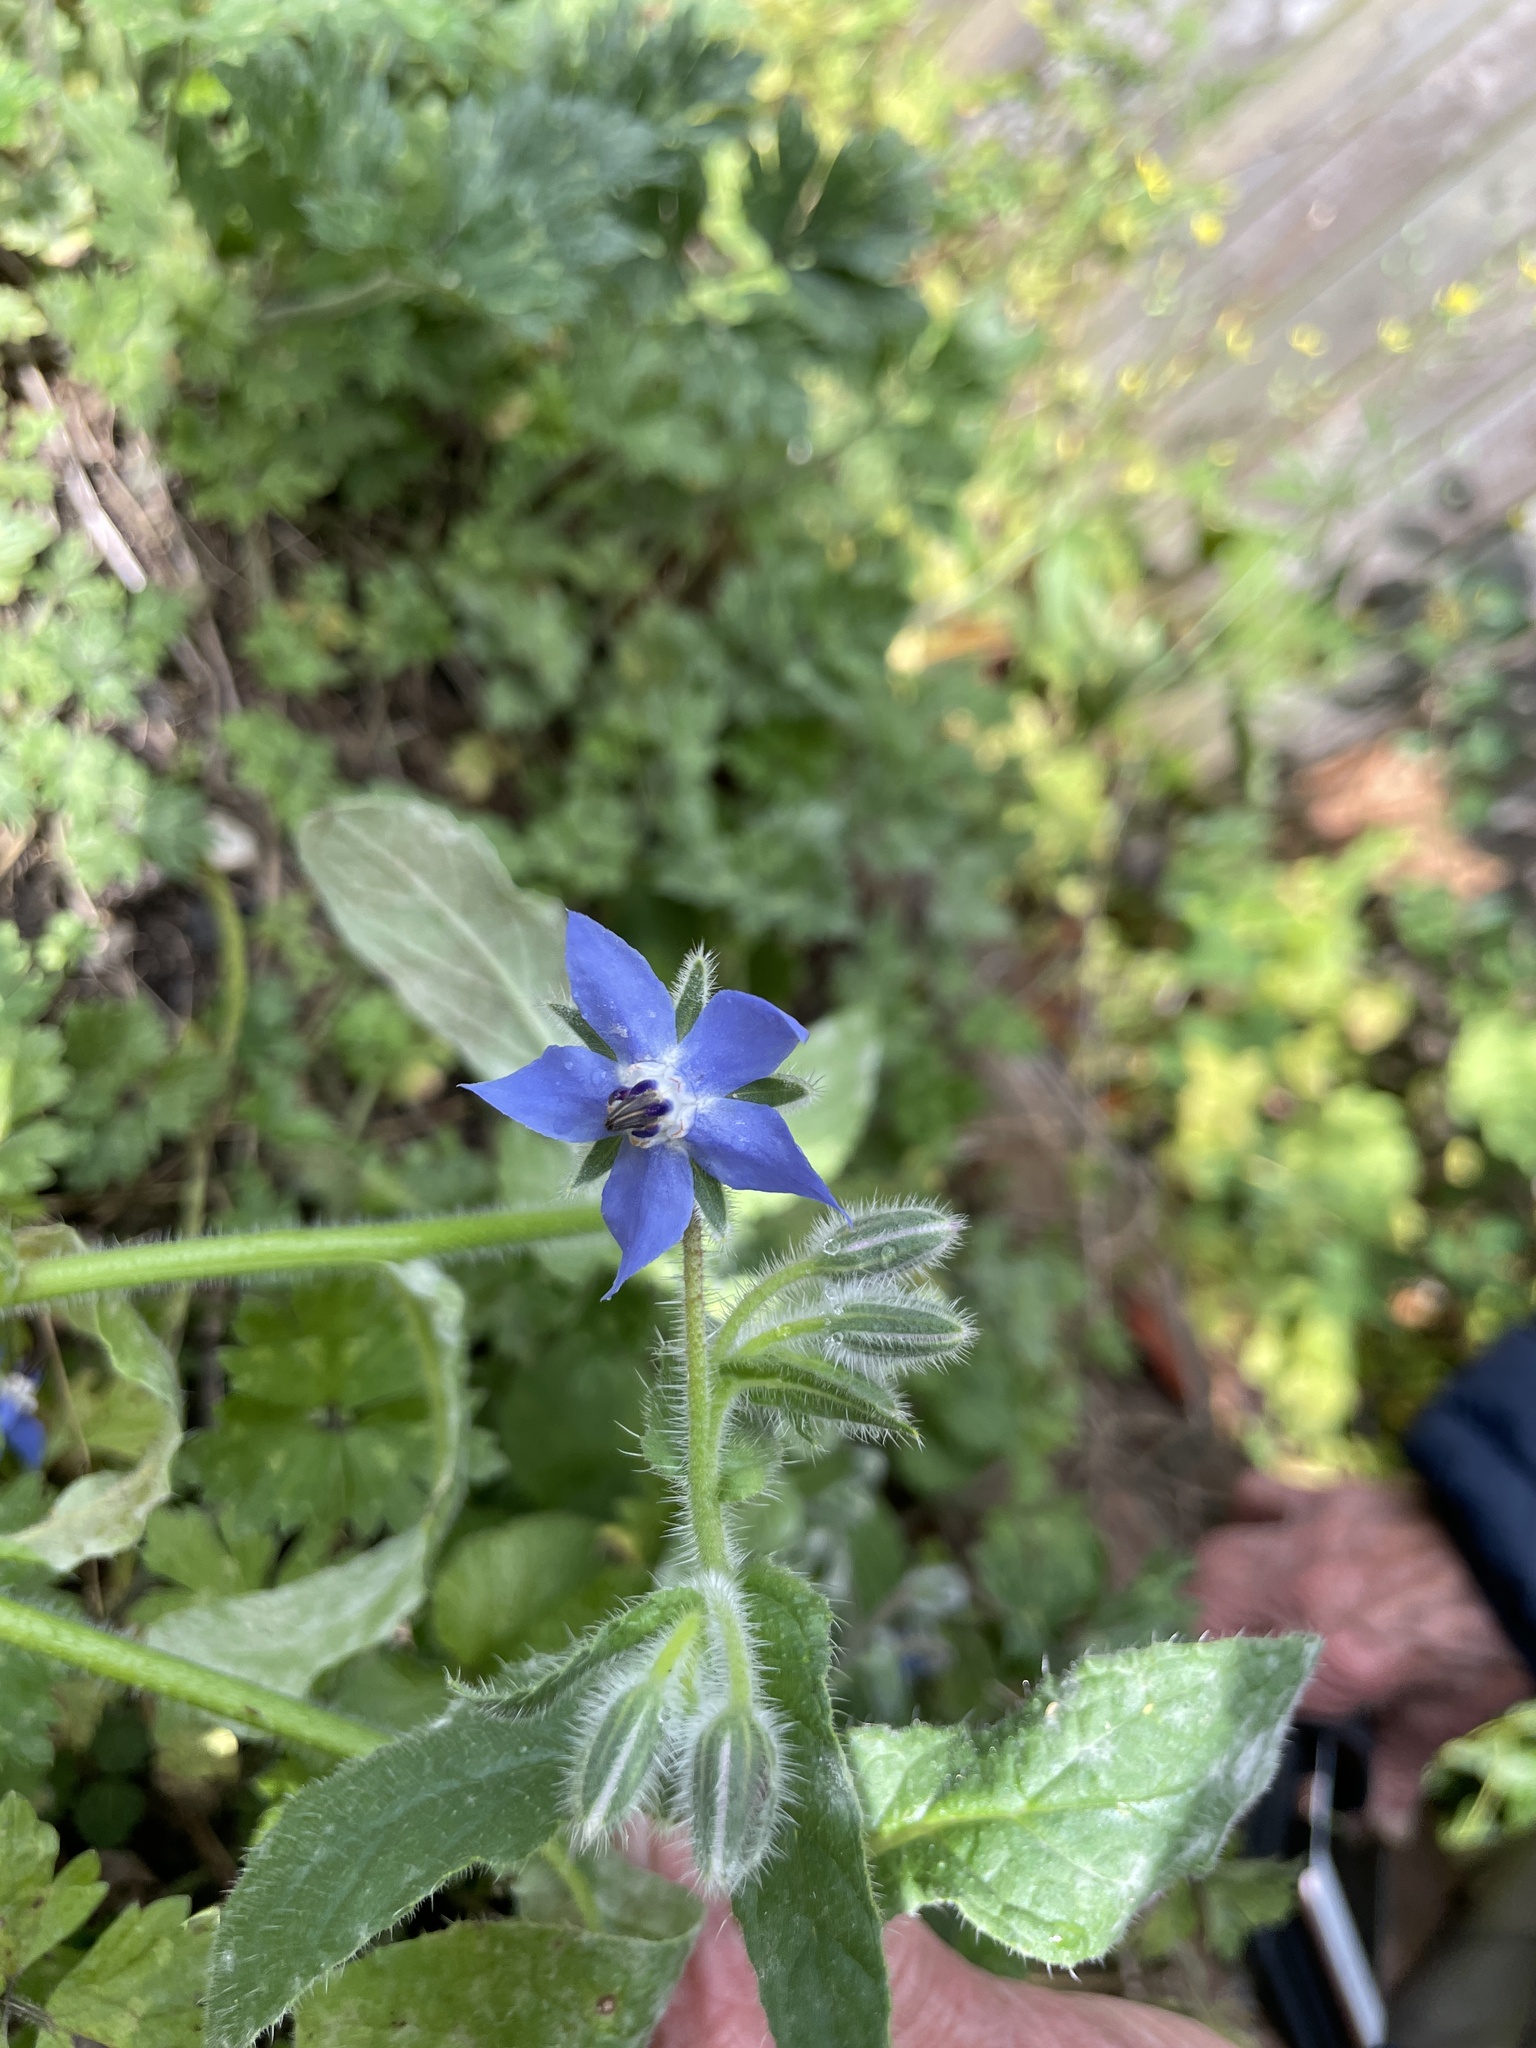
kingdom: Plantae
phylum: Tracheophyta
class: Magnoliopsida
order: Boraginales
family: Boraginaceae
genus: Borago
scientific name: Borago officinalis
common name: Borage
